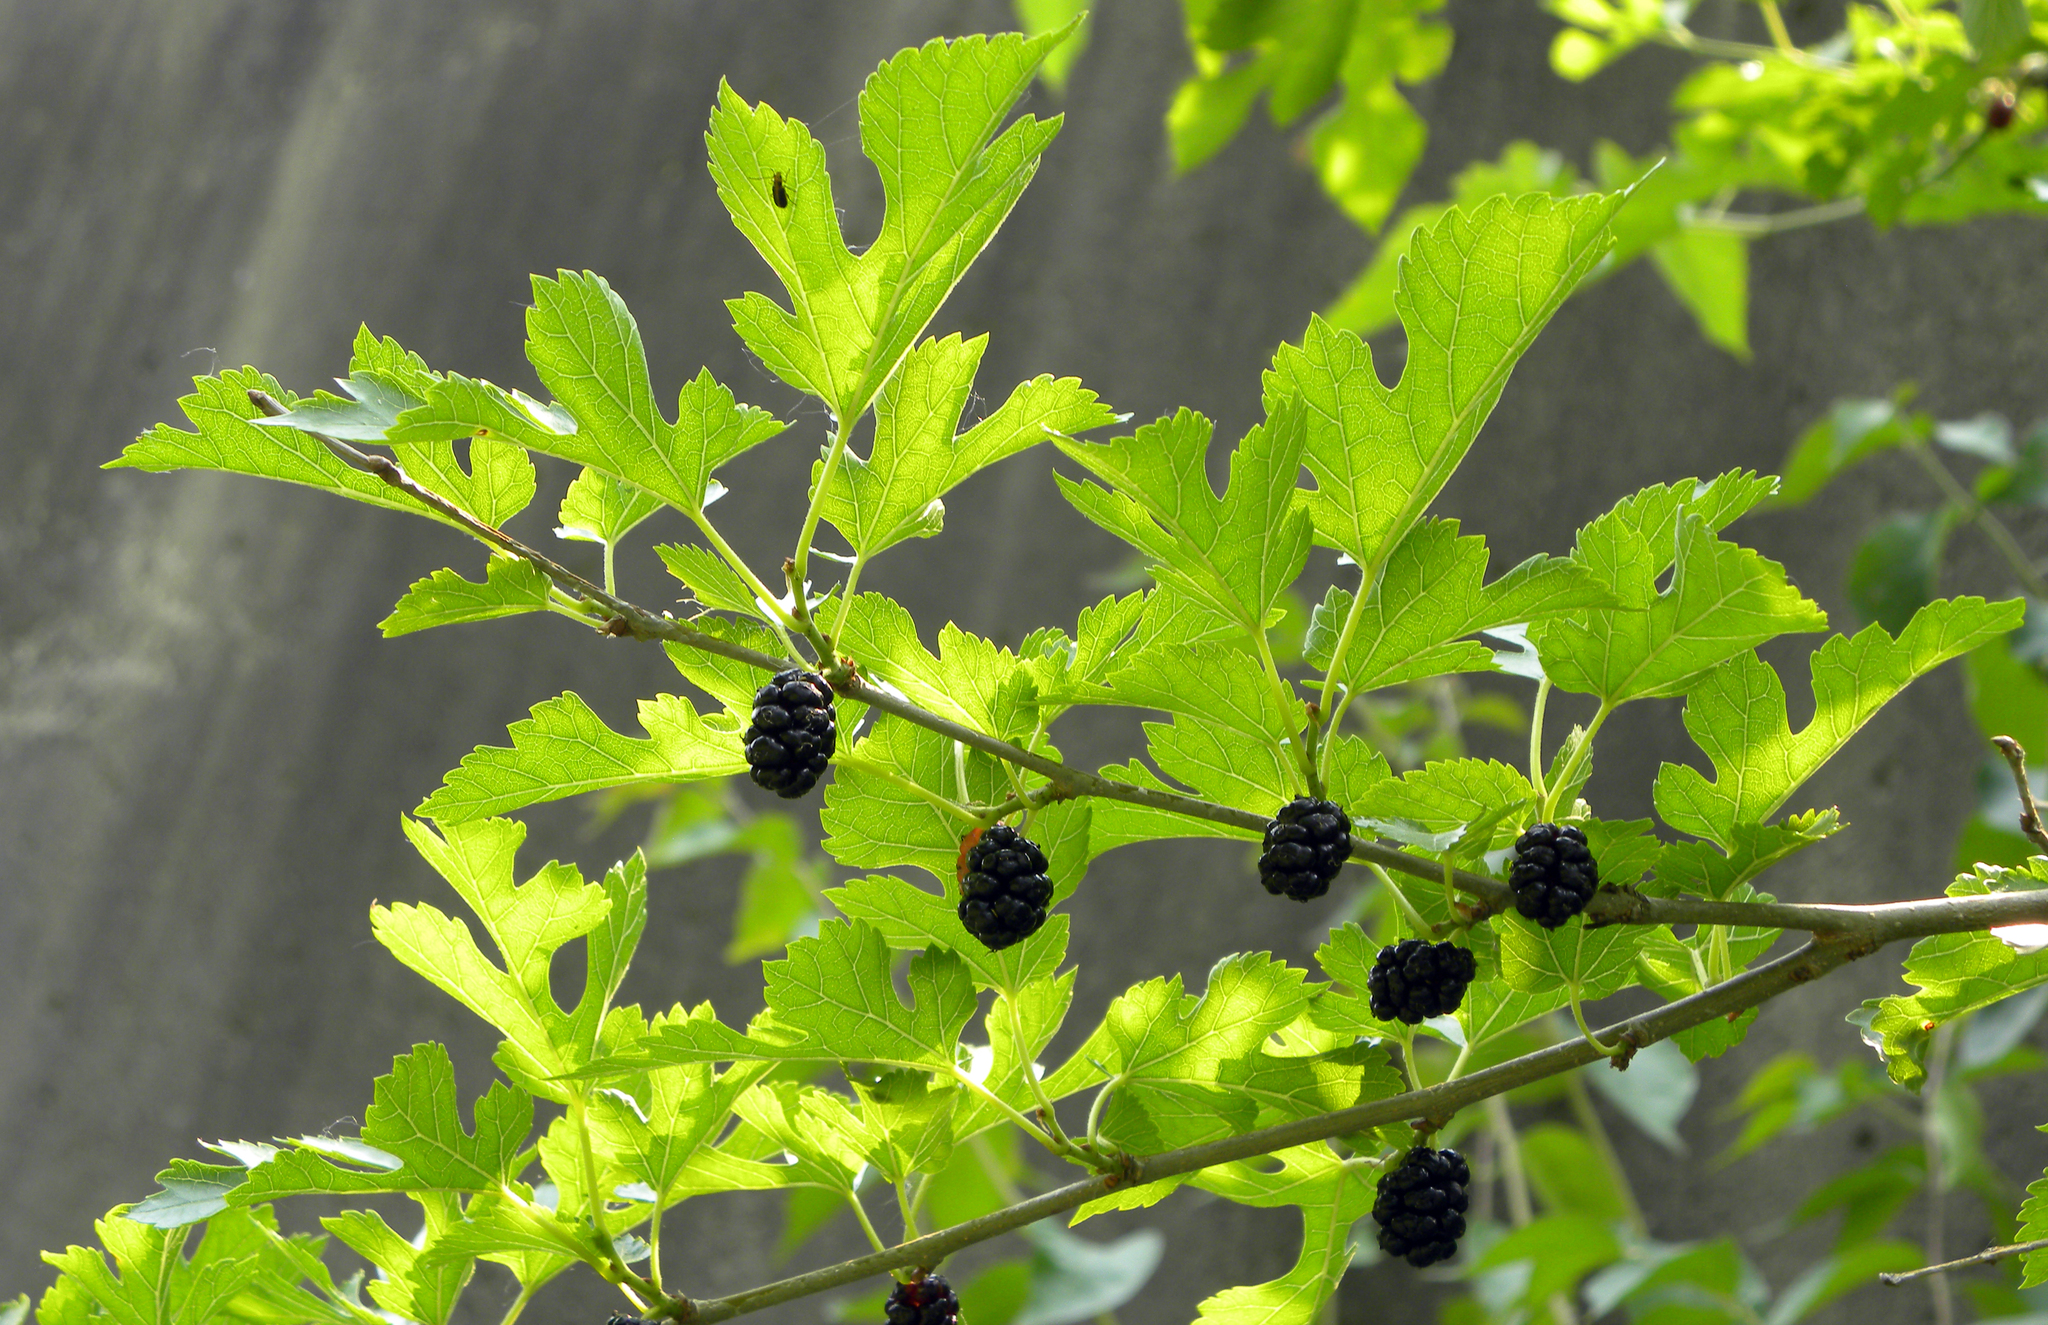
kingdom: Plantae
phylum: Tracheophyta
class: Magnoliopsida
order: Rosales
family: Moraceae
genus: Morus
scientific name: Morus alba
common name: White mulberry
